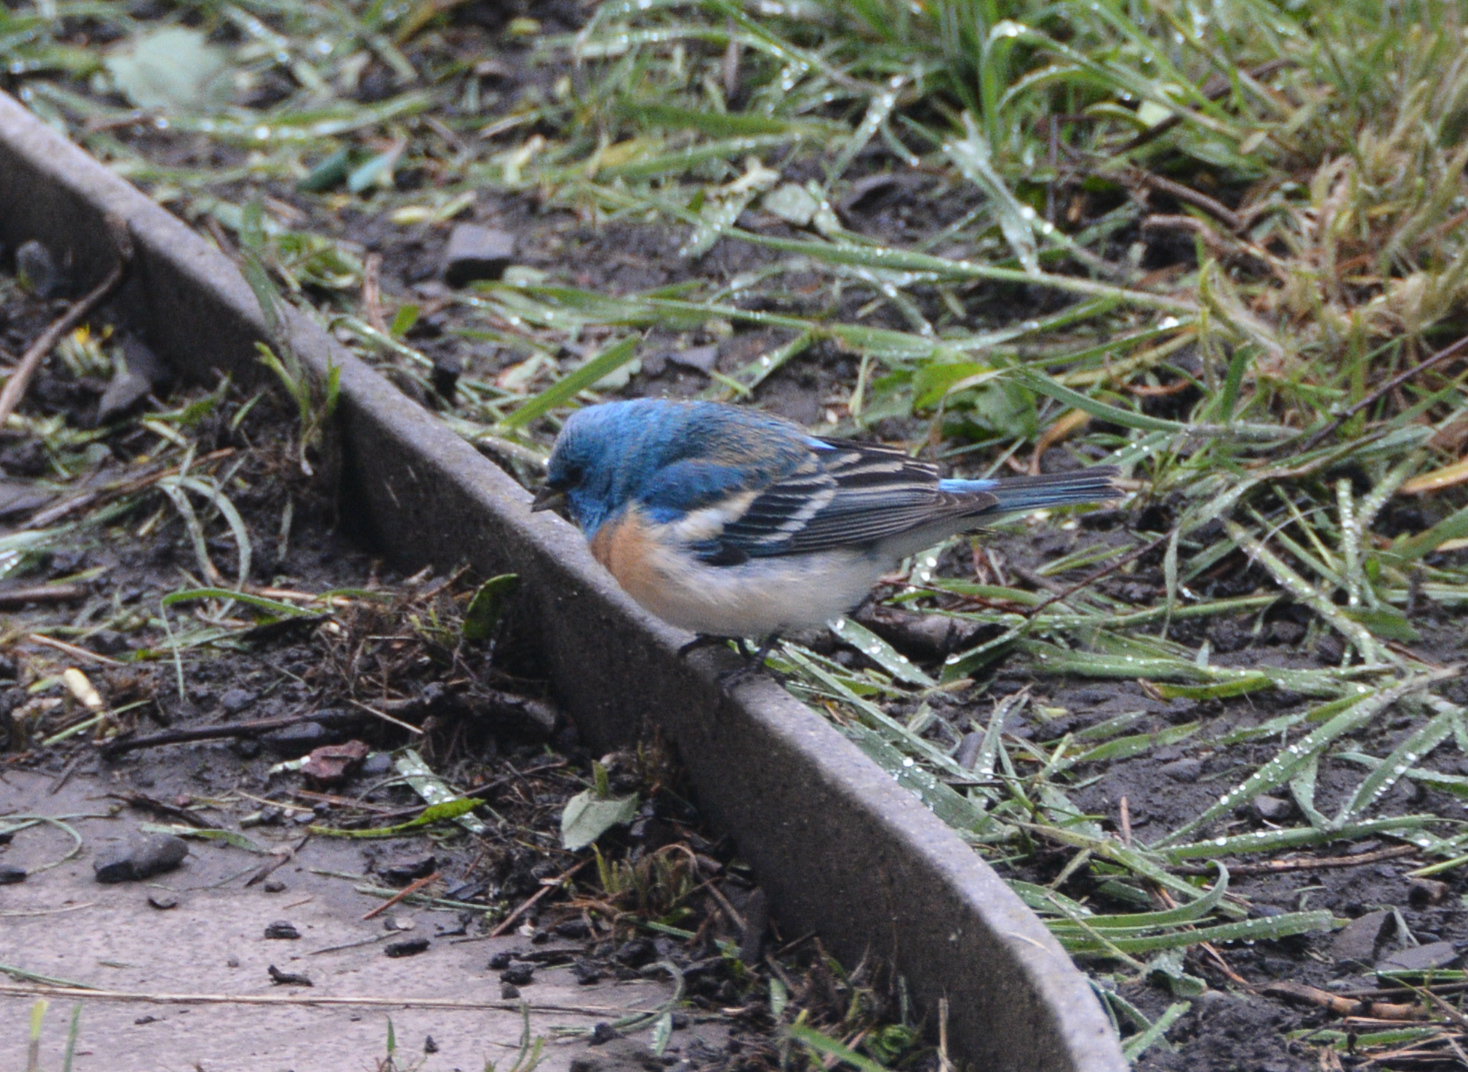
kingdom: Animalia
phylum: Chordata
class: Aves
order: Passeriformes
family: Cardinalidae
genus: Passerina
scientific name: Passerina amoena
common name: Lazuli bunting
